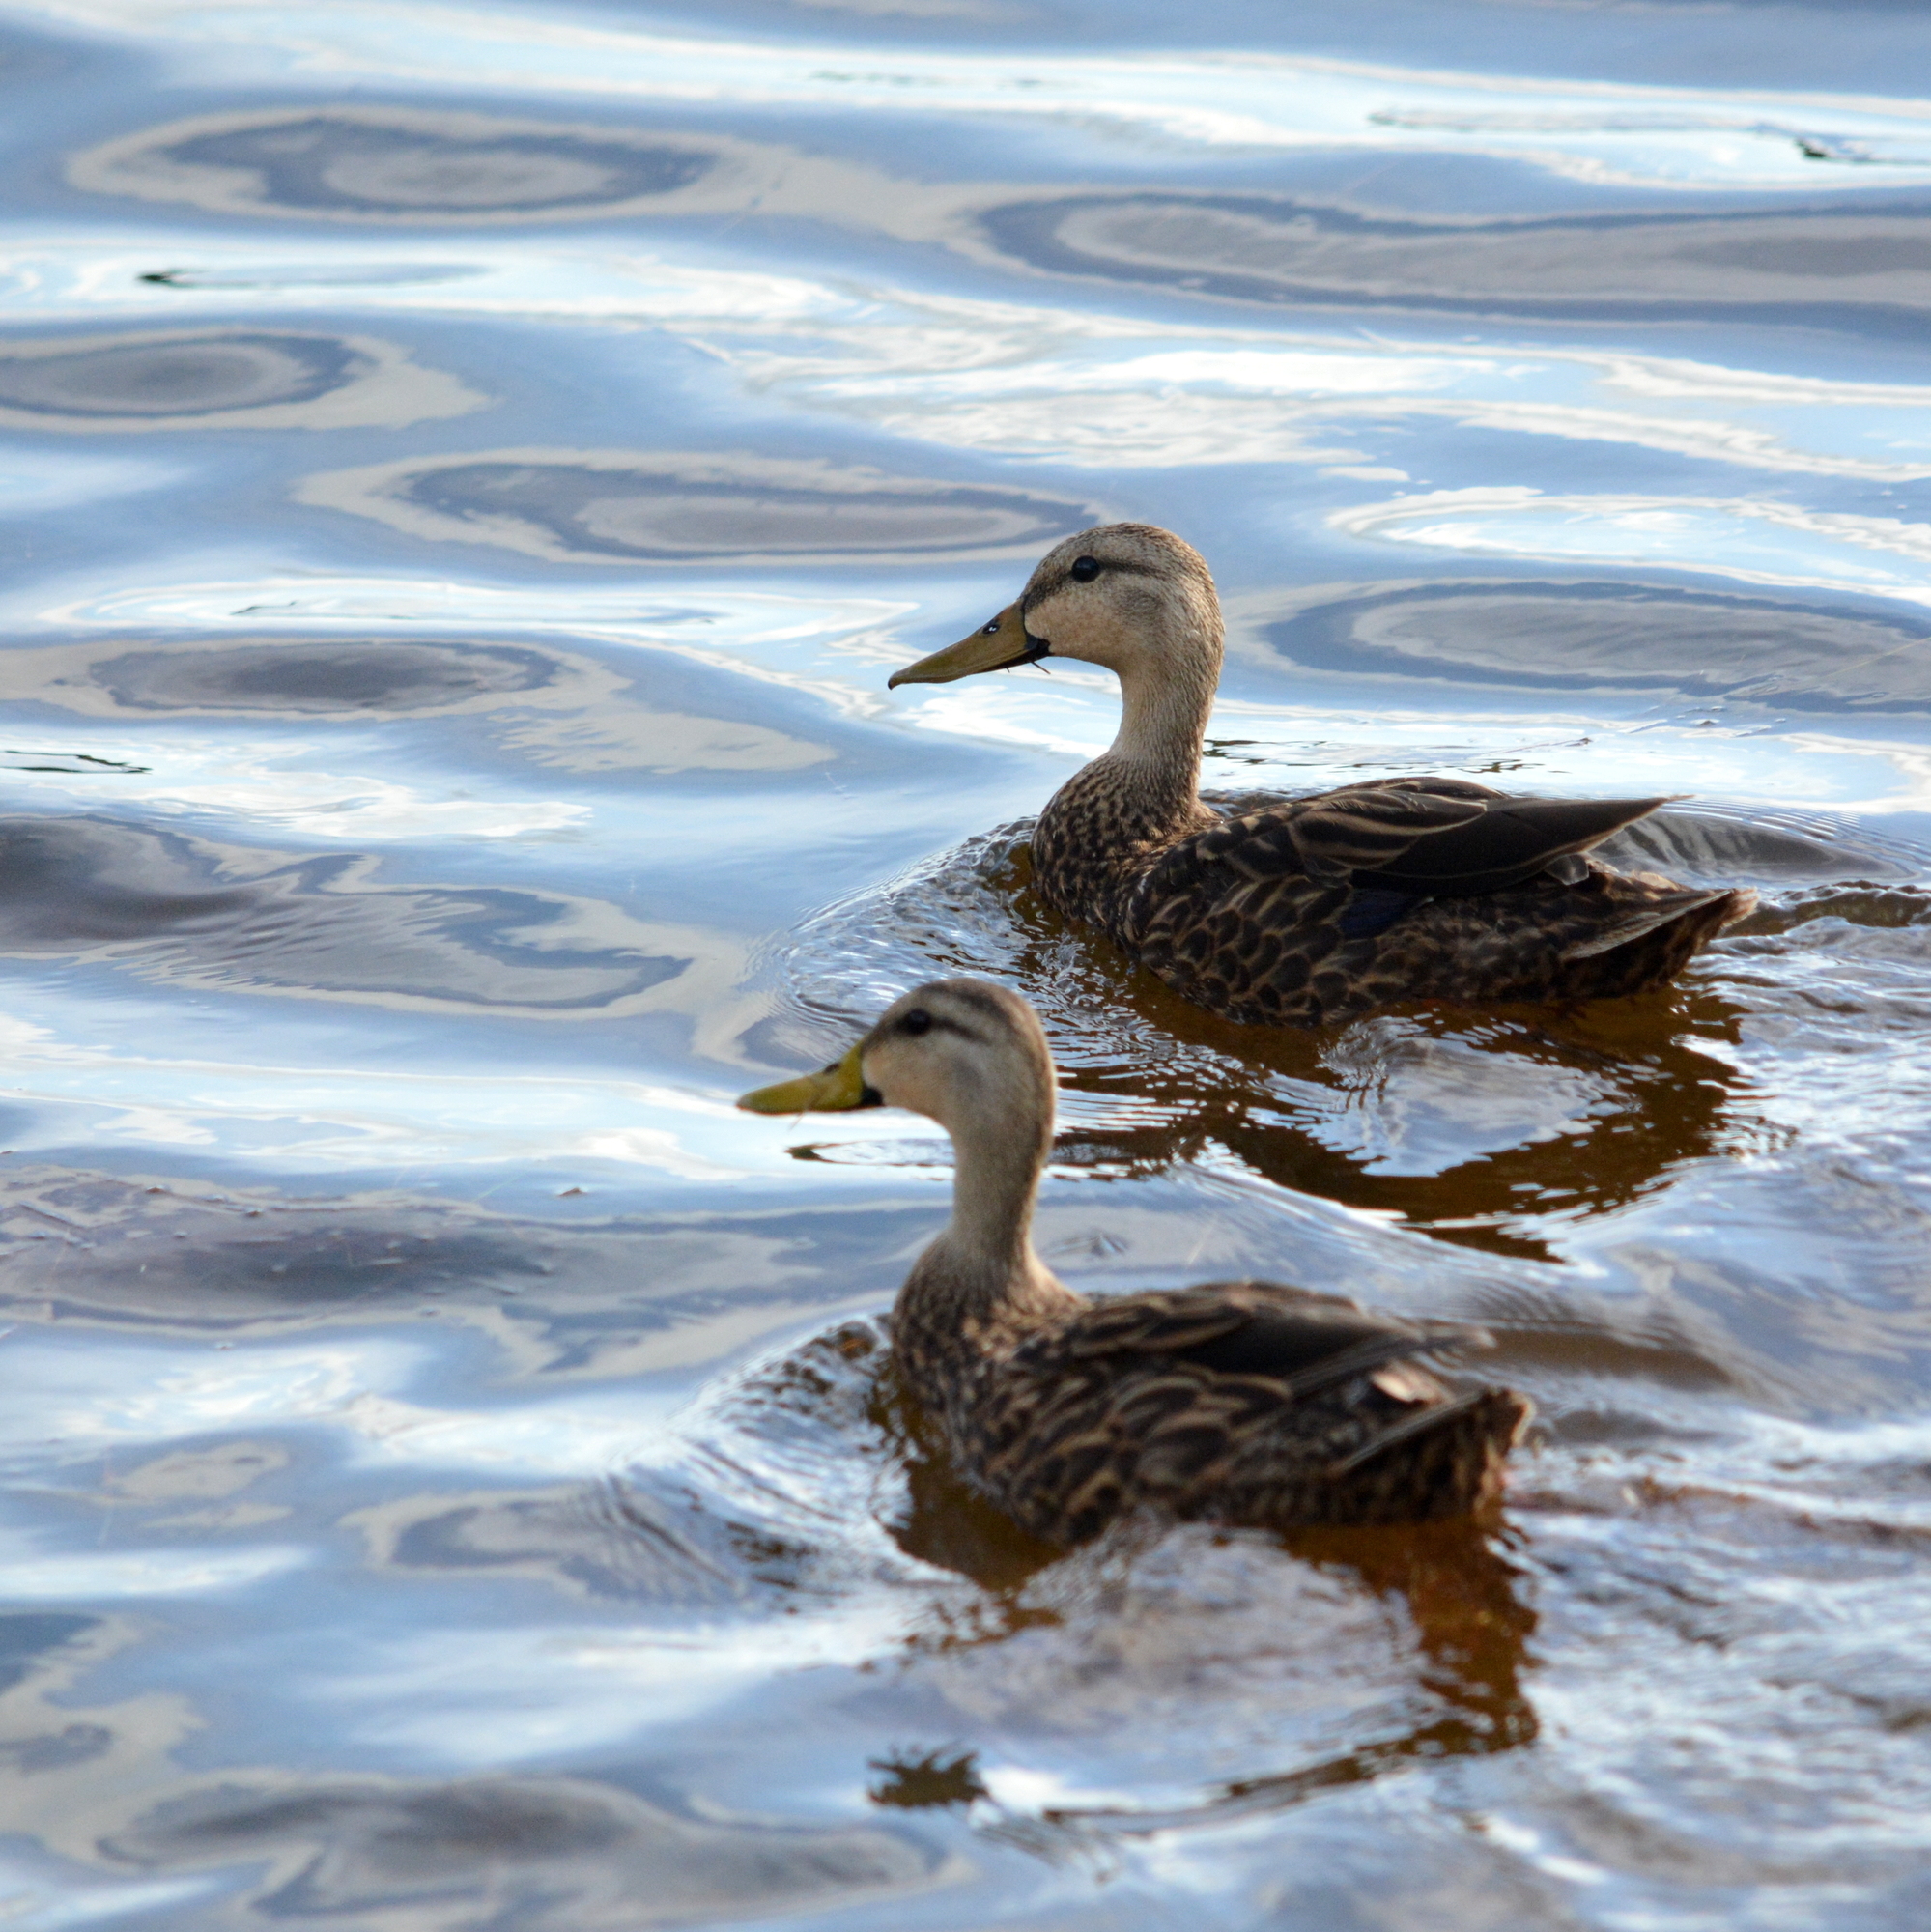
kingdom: Animalia
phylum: Chordata
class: Aves
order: Anseriformes
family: Anatidae
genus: Anas
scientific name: Anas fulvigula
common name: Mottled duck
